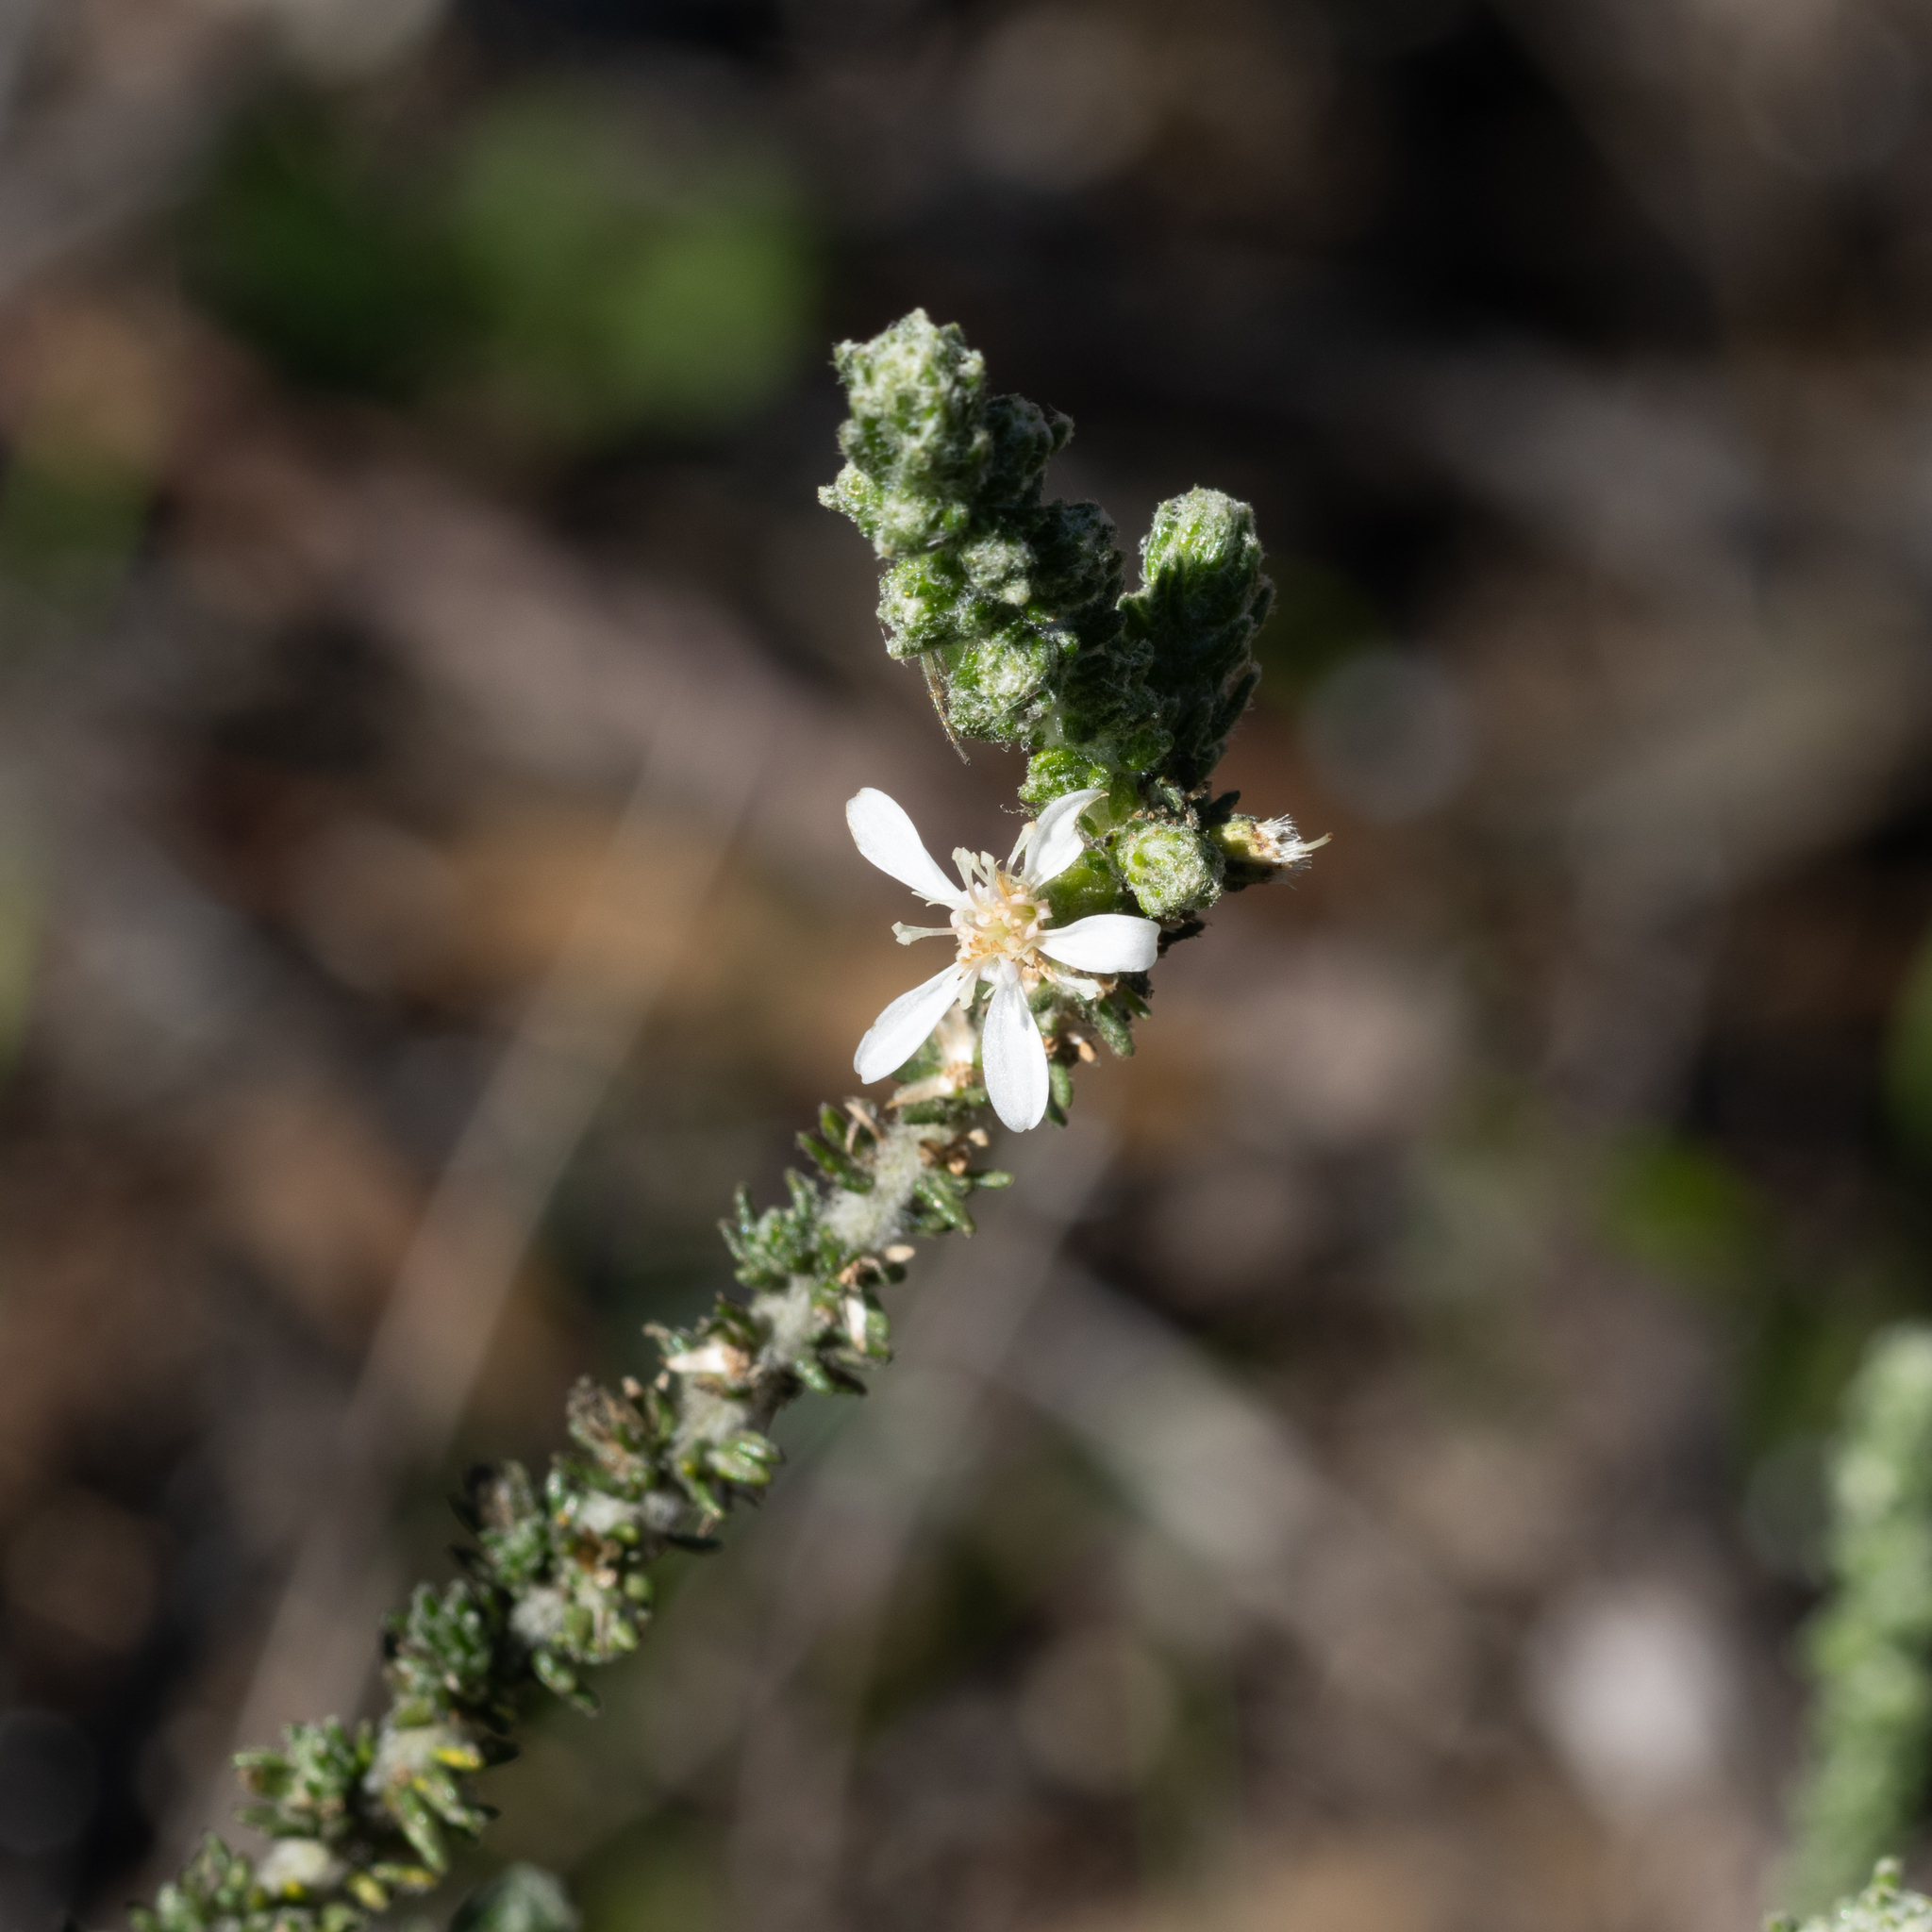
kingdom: Plantae
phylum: Tracheophyta
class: Magnoliopsida
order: Asterales
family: Asteraceae
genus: Olearia
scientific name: Olearia lanuginosa
